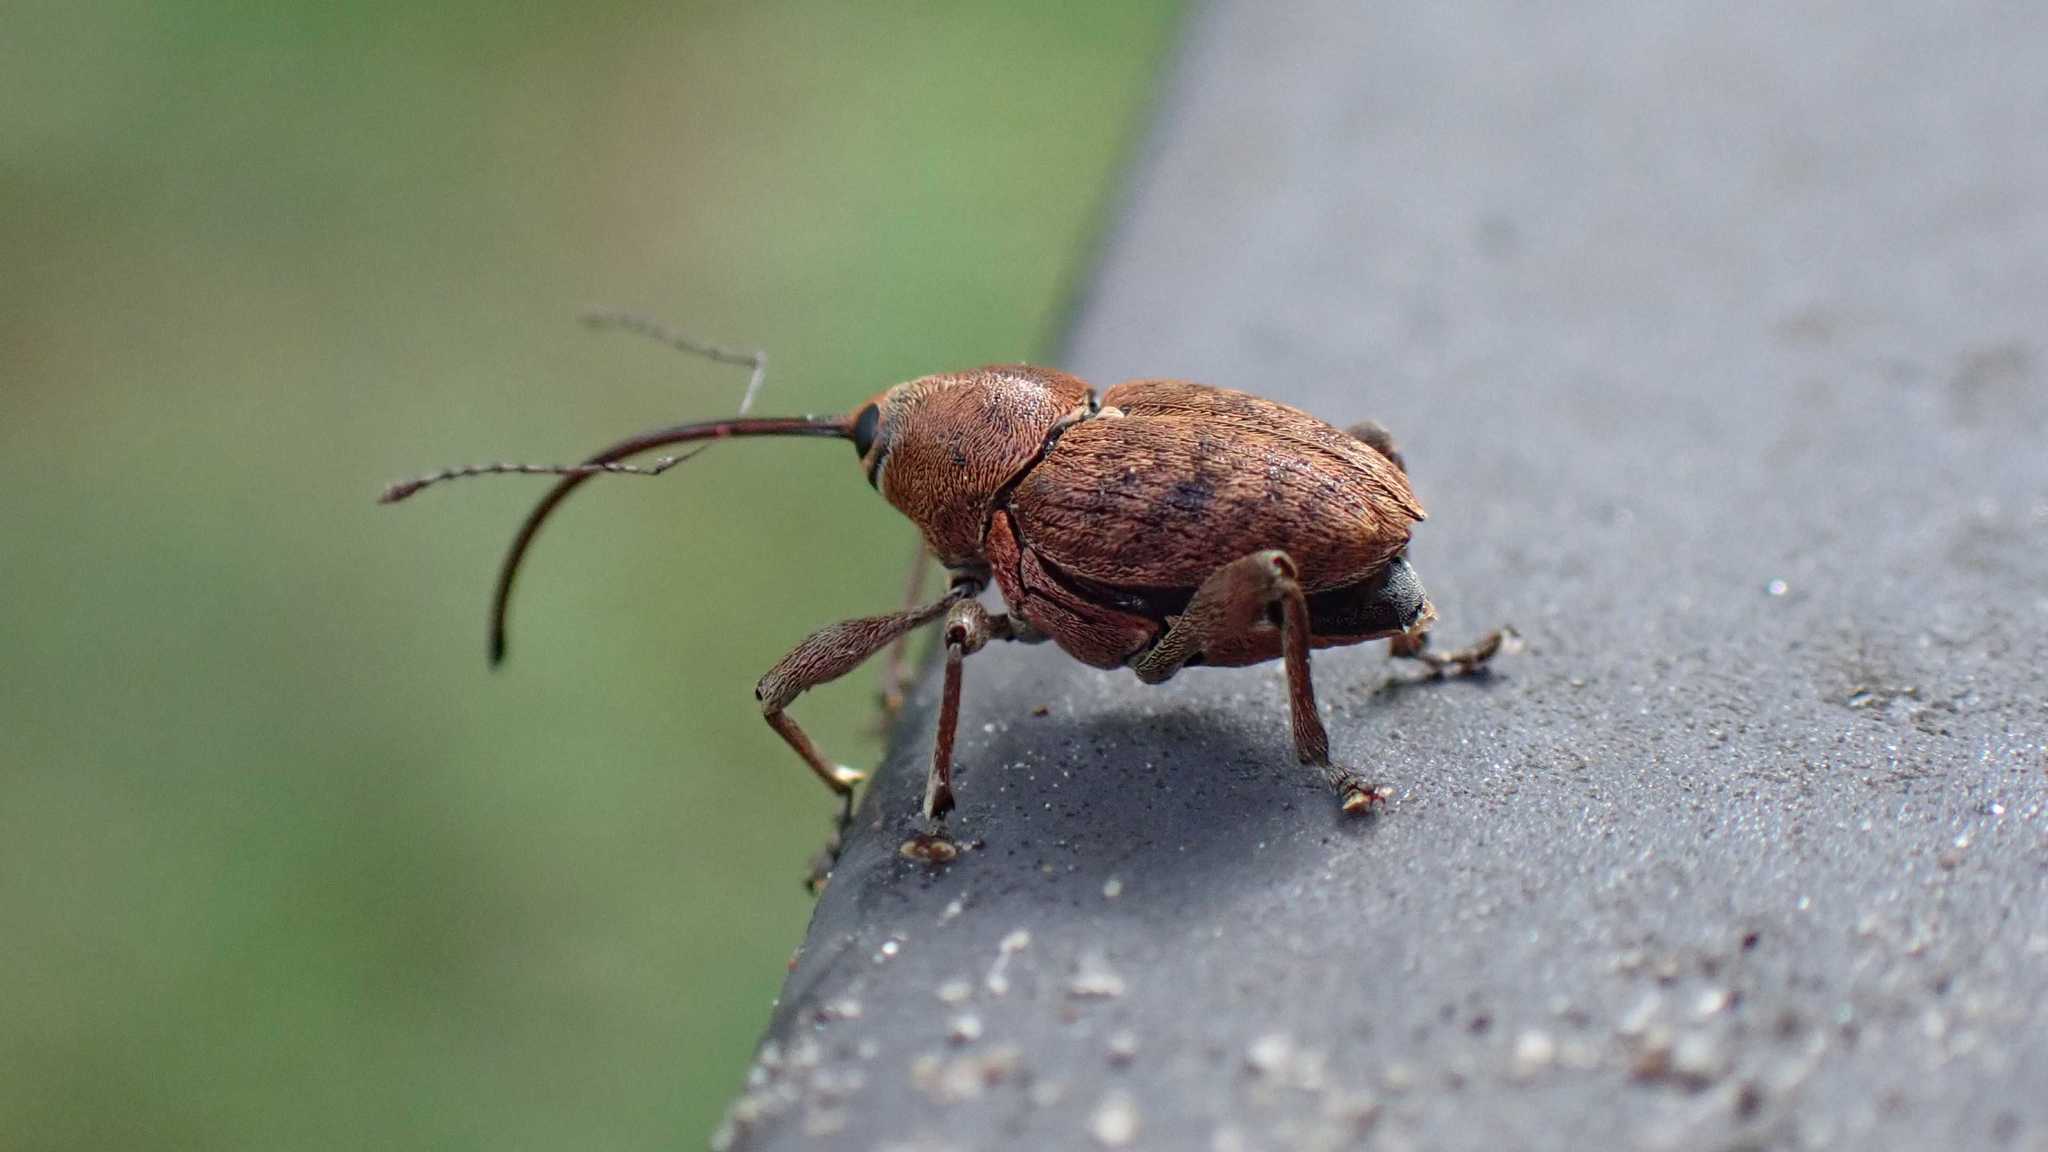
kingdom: Animalia
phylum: Arthropoda
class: Insecta
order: Coleoptera
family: Curculionidae
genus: Curculio
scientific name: Curculio glandium
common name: Acorn weevil
